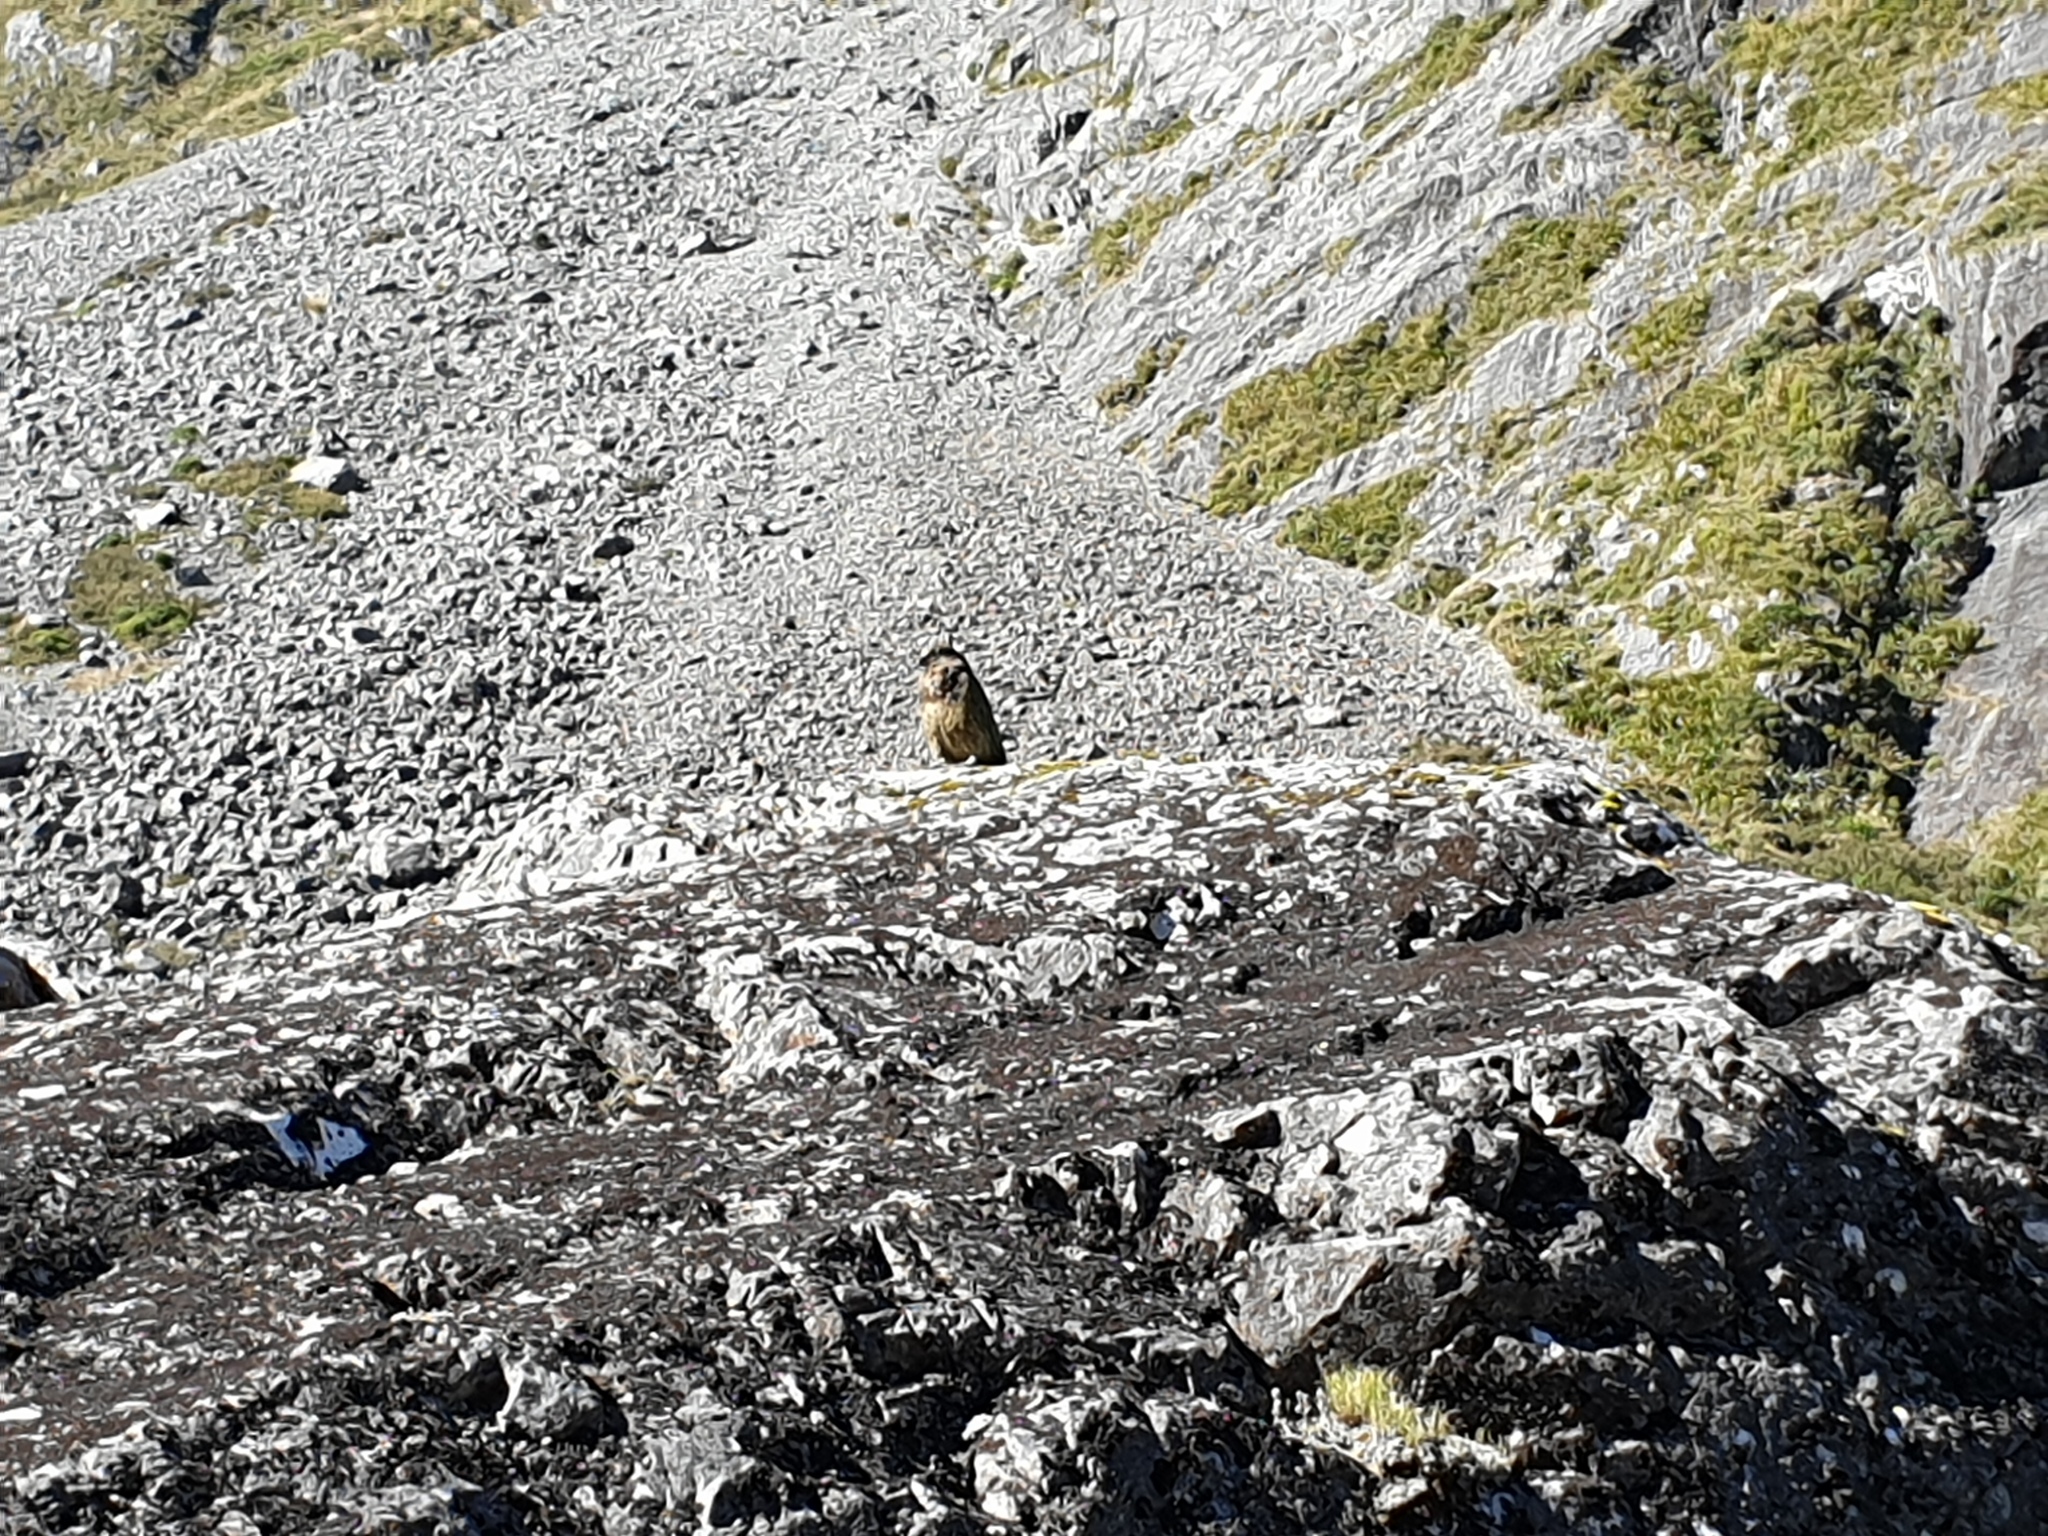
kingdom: Animalia
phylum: Chordata
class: Aves
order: Psittaciformes
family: Psittacidae
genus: Nestor
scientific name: Nestor notabilis
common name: Kea
